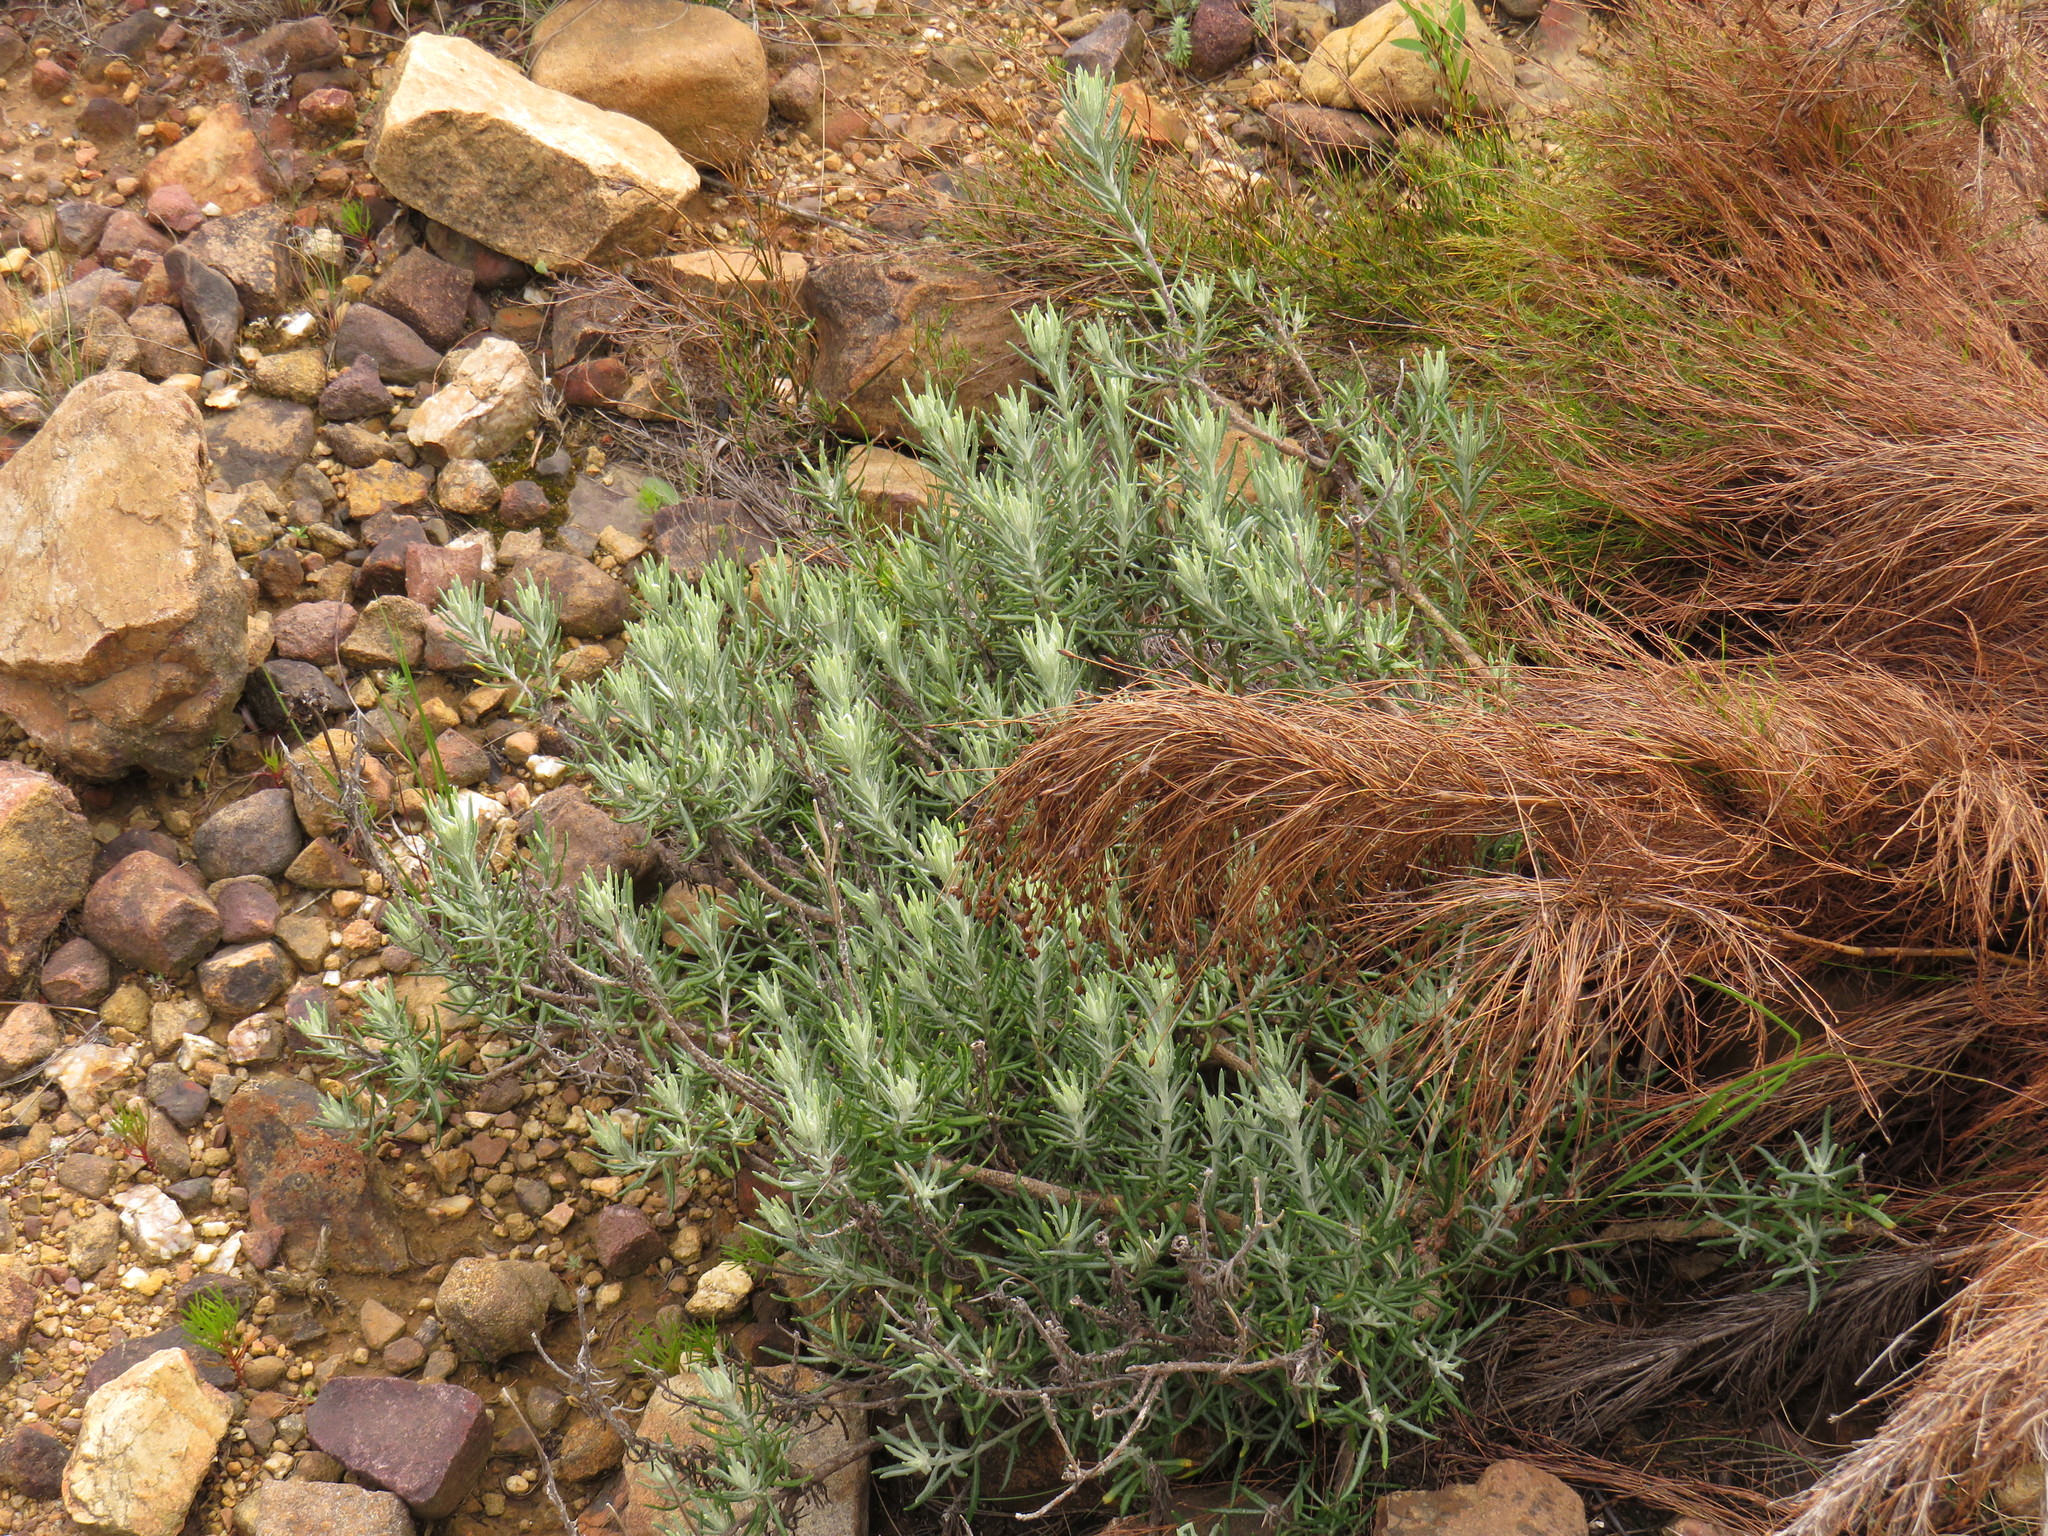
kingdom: Plantae
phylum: Tracheophyta
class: Magnoliopsida
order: Asterales
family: Asteraceae
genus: Heterolepis
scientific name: Heterolepis aliena
